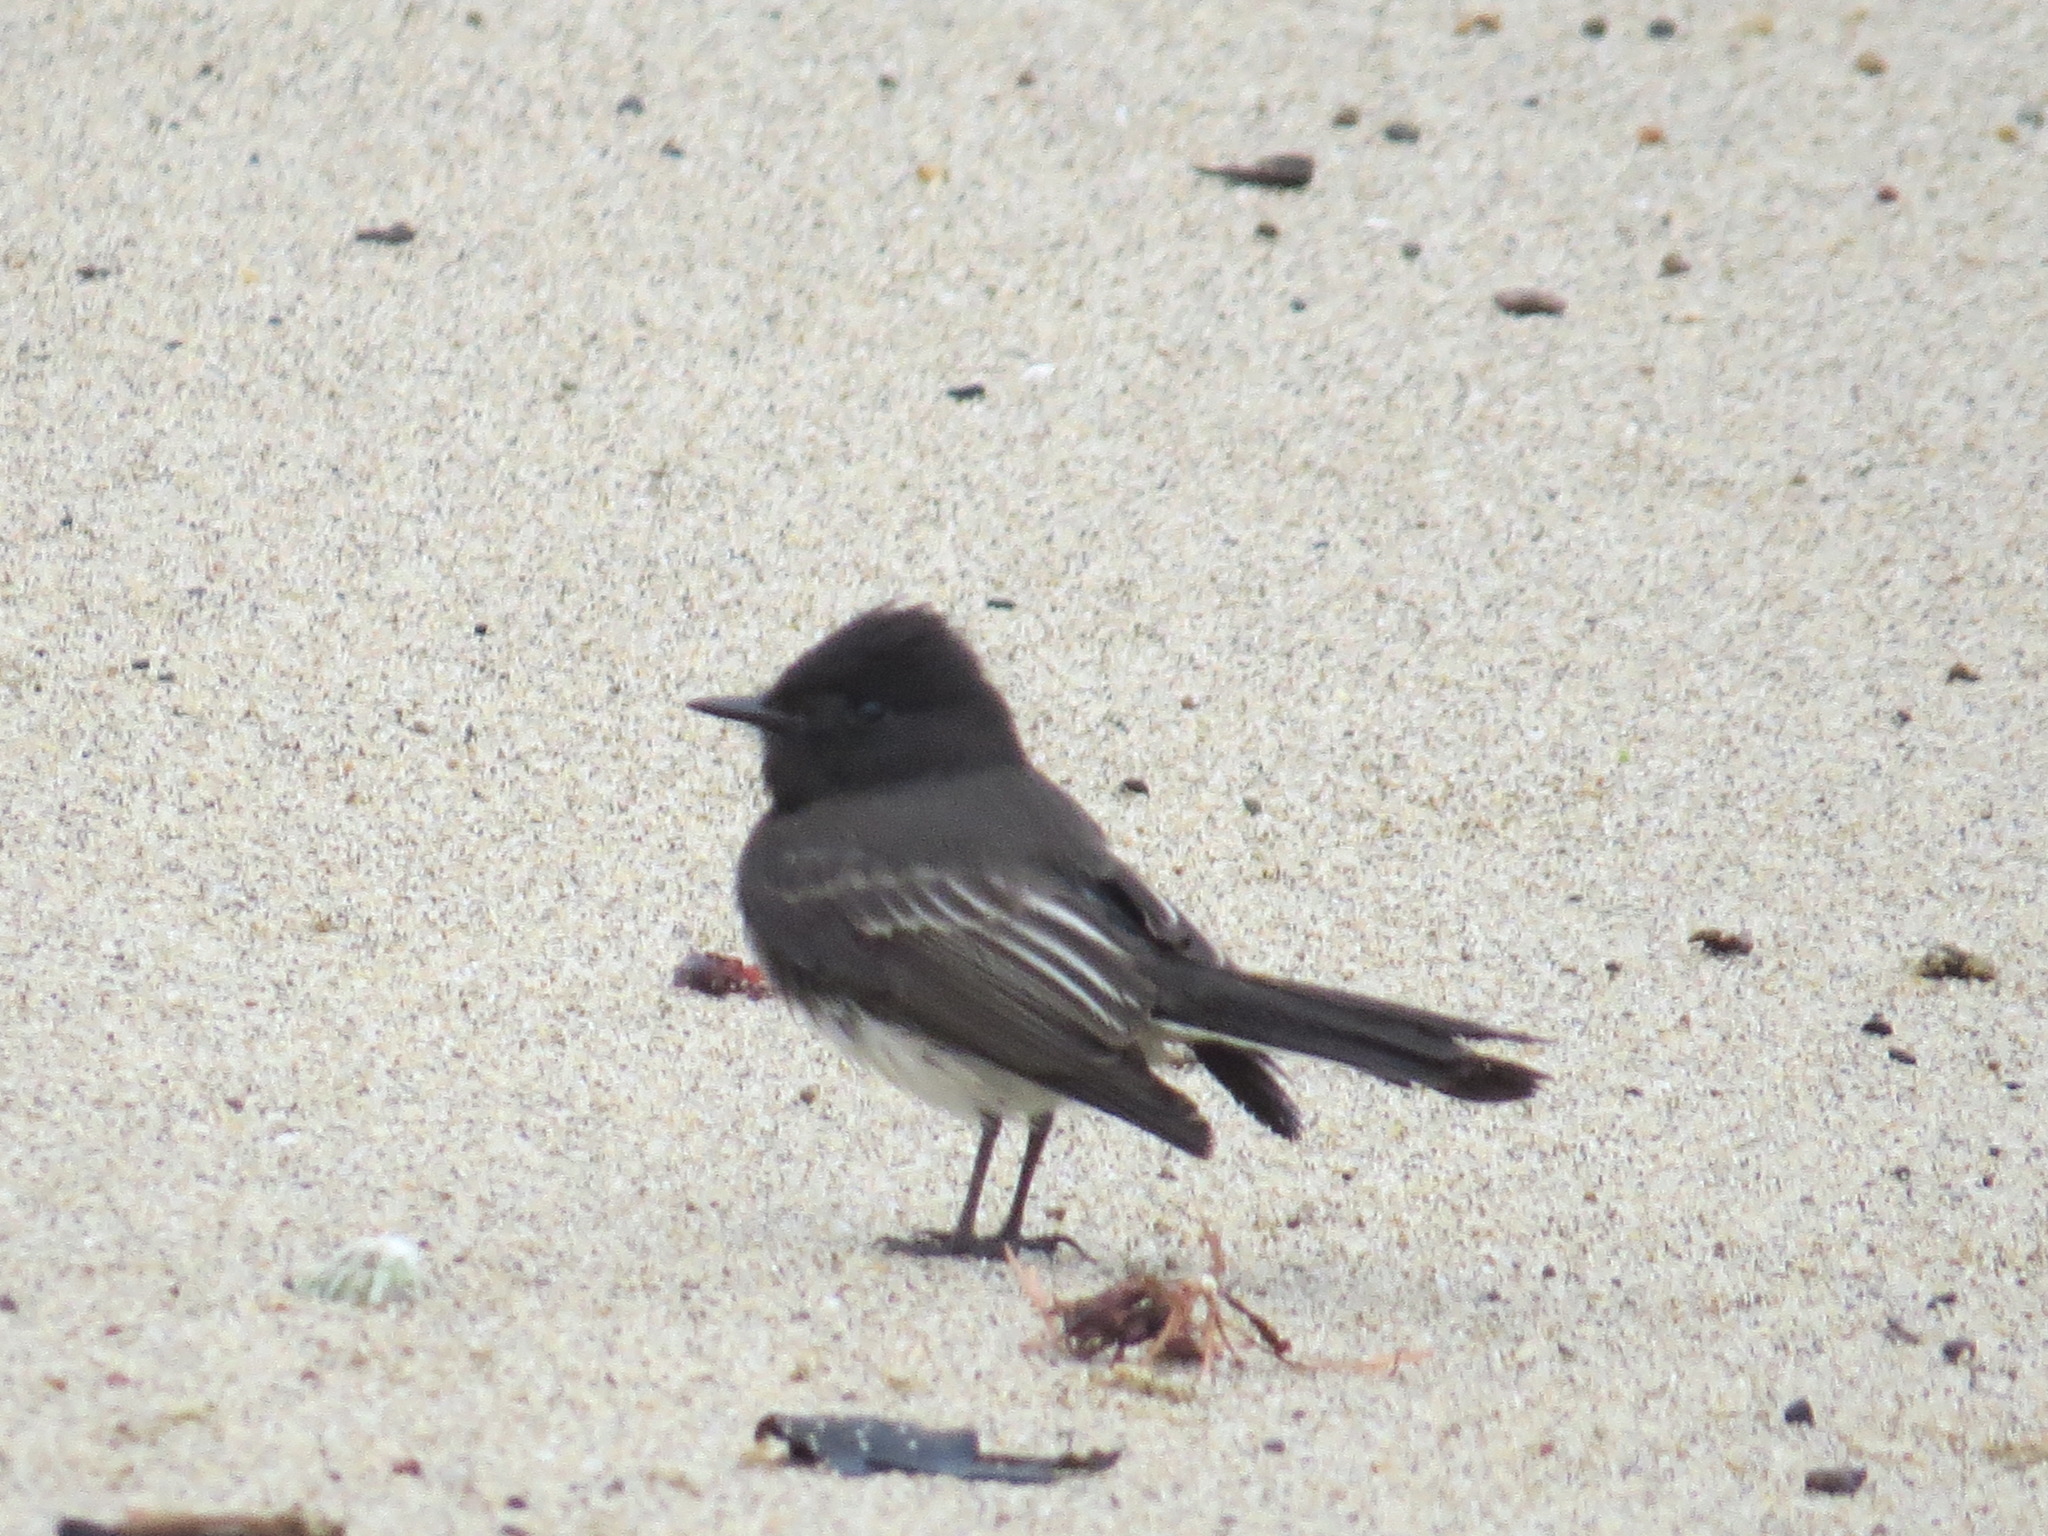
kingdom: Animalia
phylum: Chordata
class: Aves
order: Passeriformes
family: Tyrannidae
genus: Sayornis
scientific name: Sayornis nigricans
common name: Black phoebe
